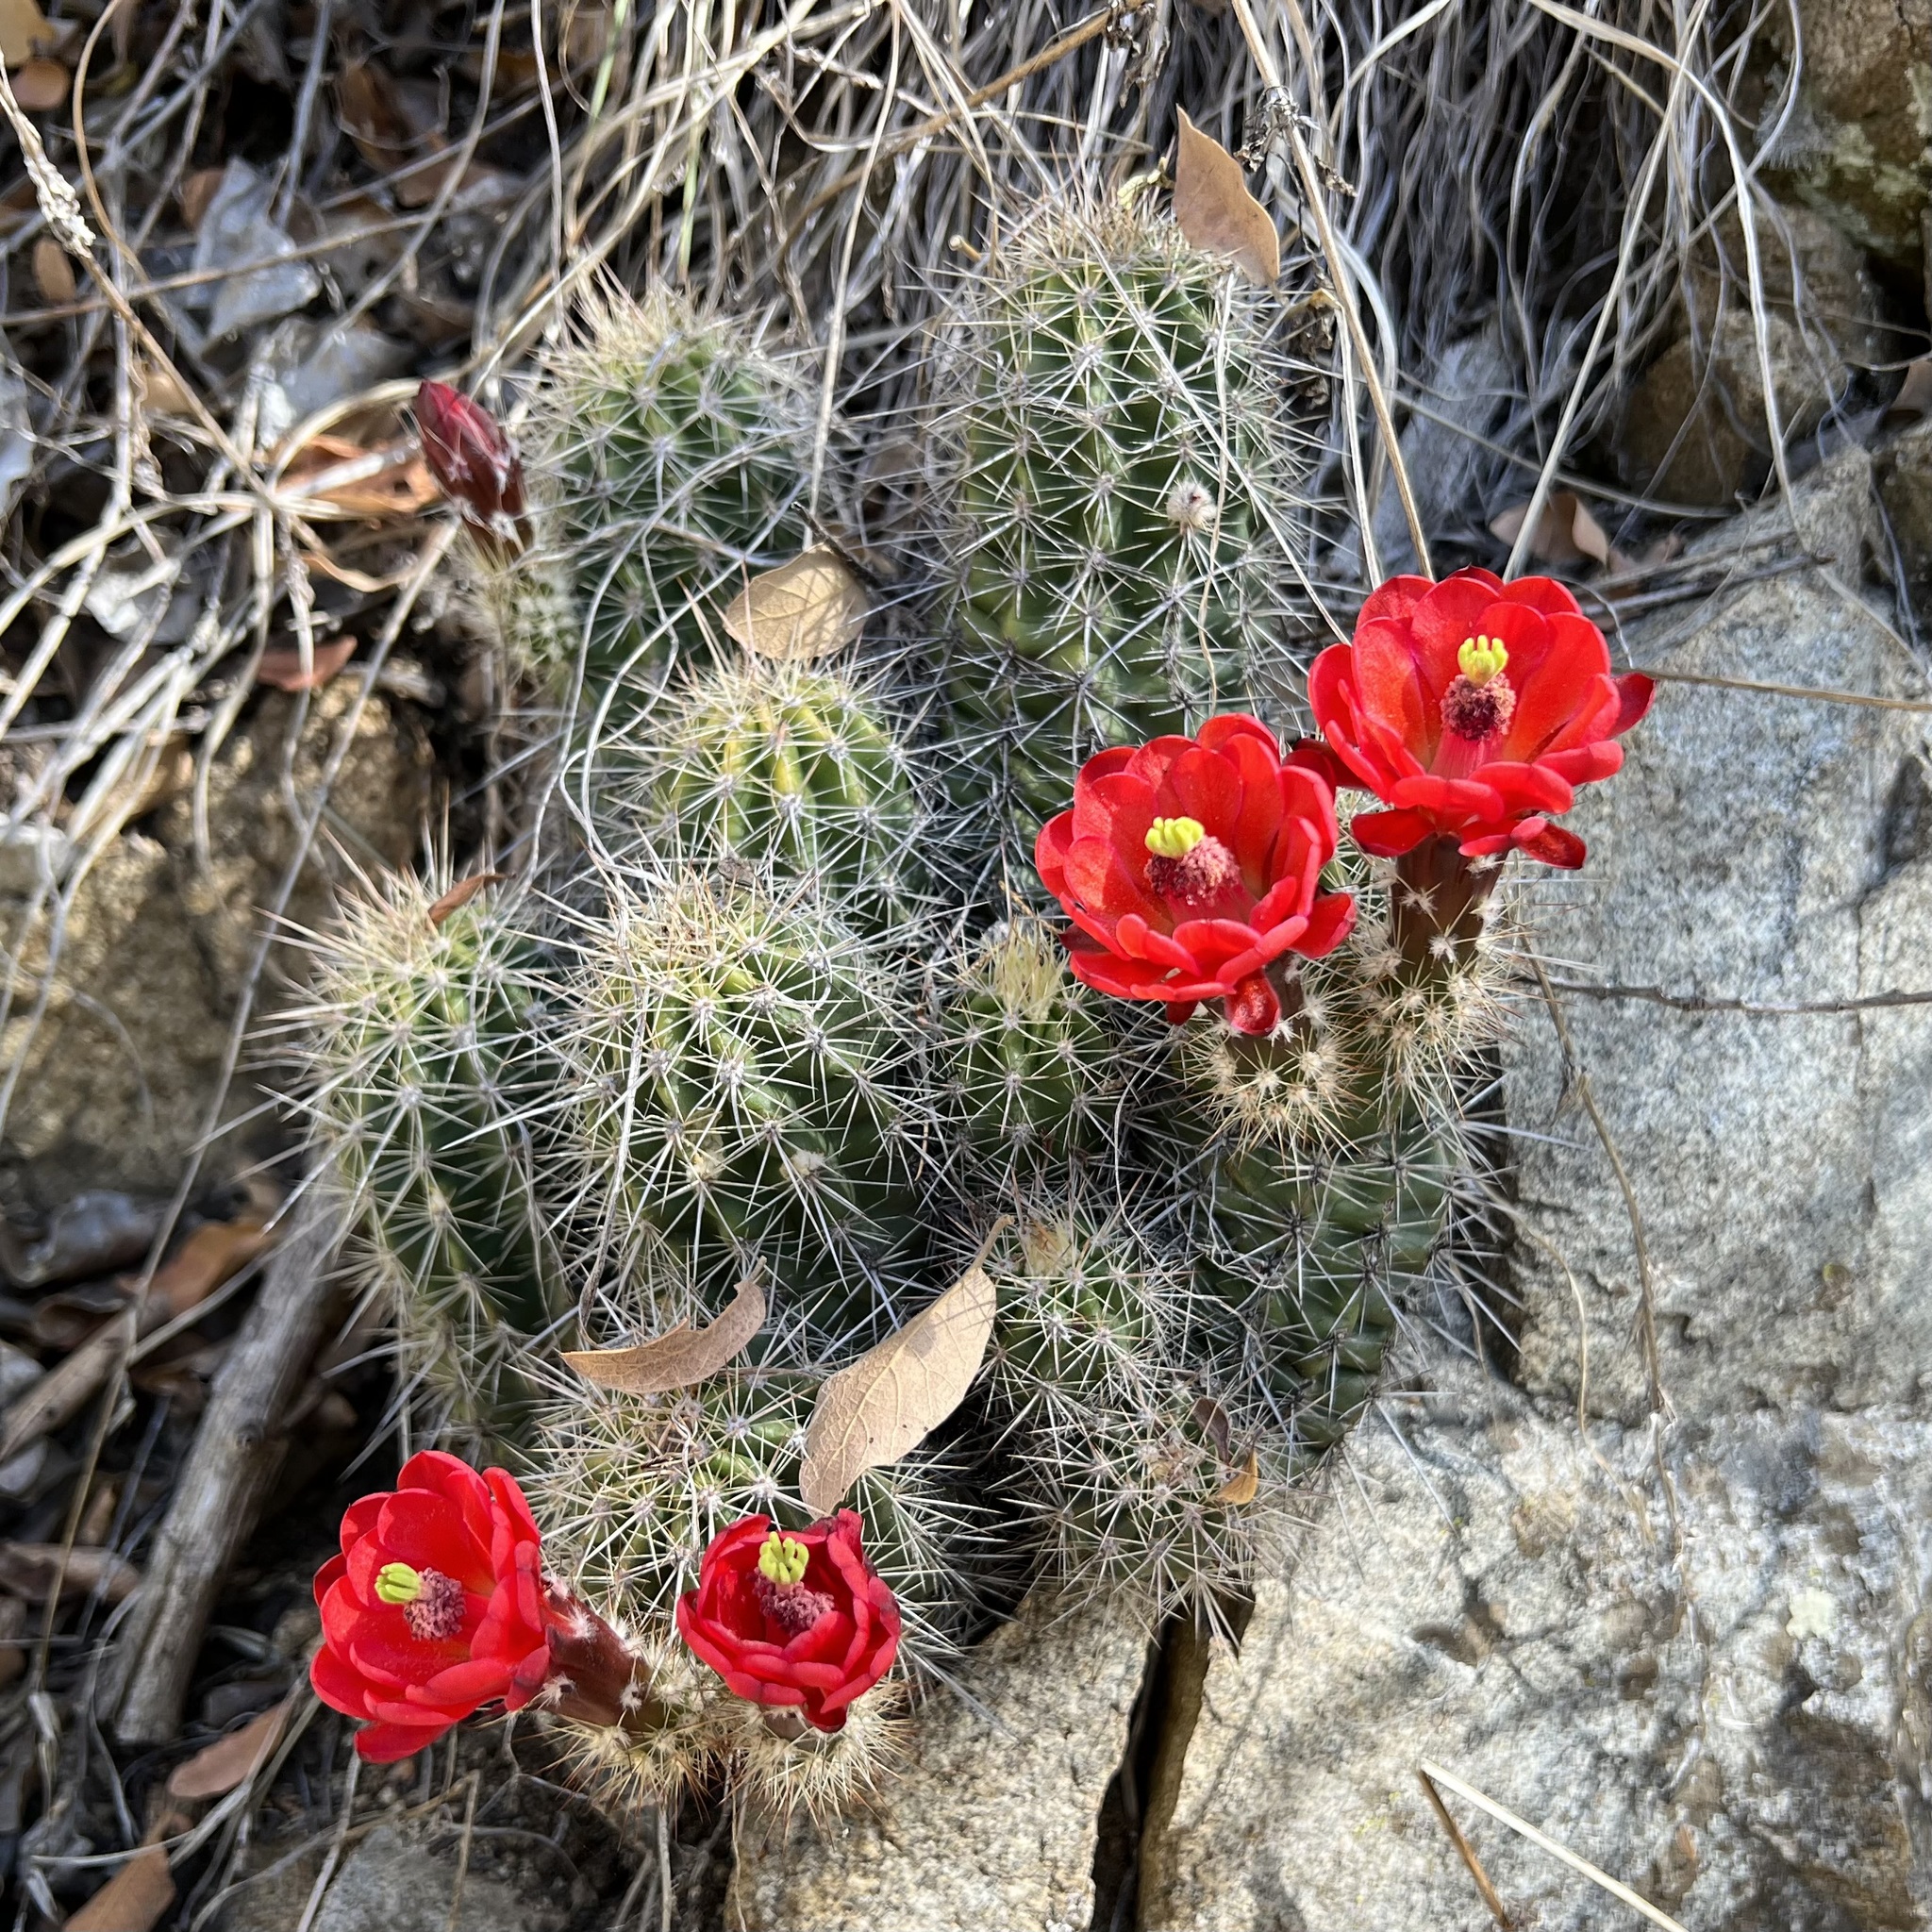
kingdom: Plantae
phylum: Tracheophyta
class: Magnoliopsida
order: Caryophyllales
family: Cactaceae
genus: Echinocereus
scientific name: Echinocereus coccineus
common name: Scarlet hedgehog cactus
